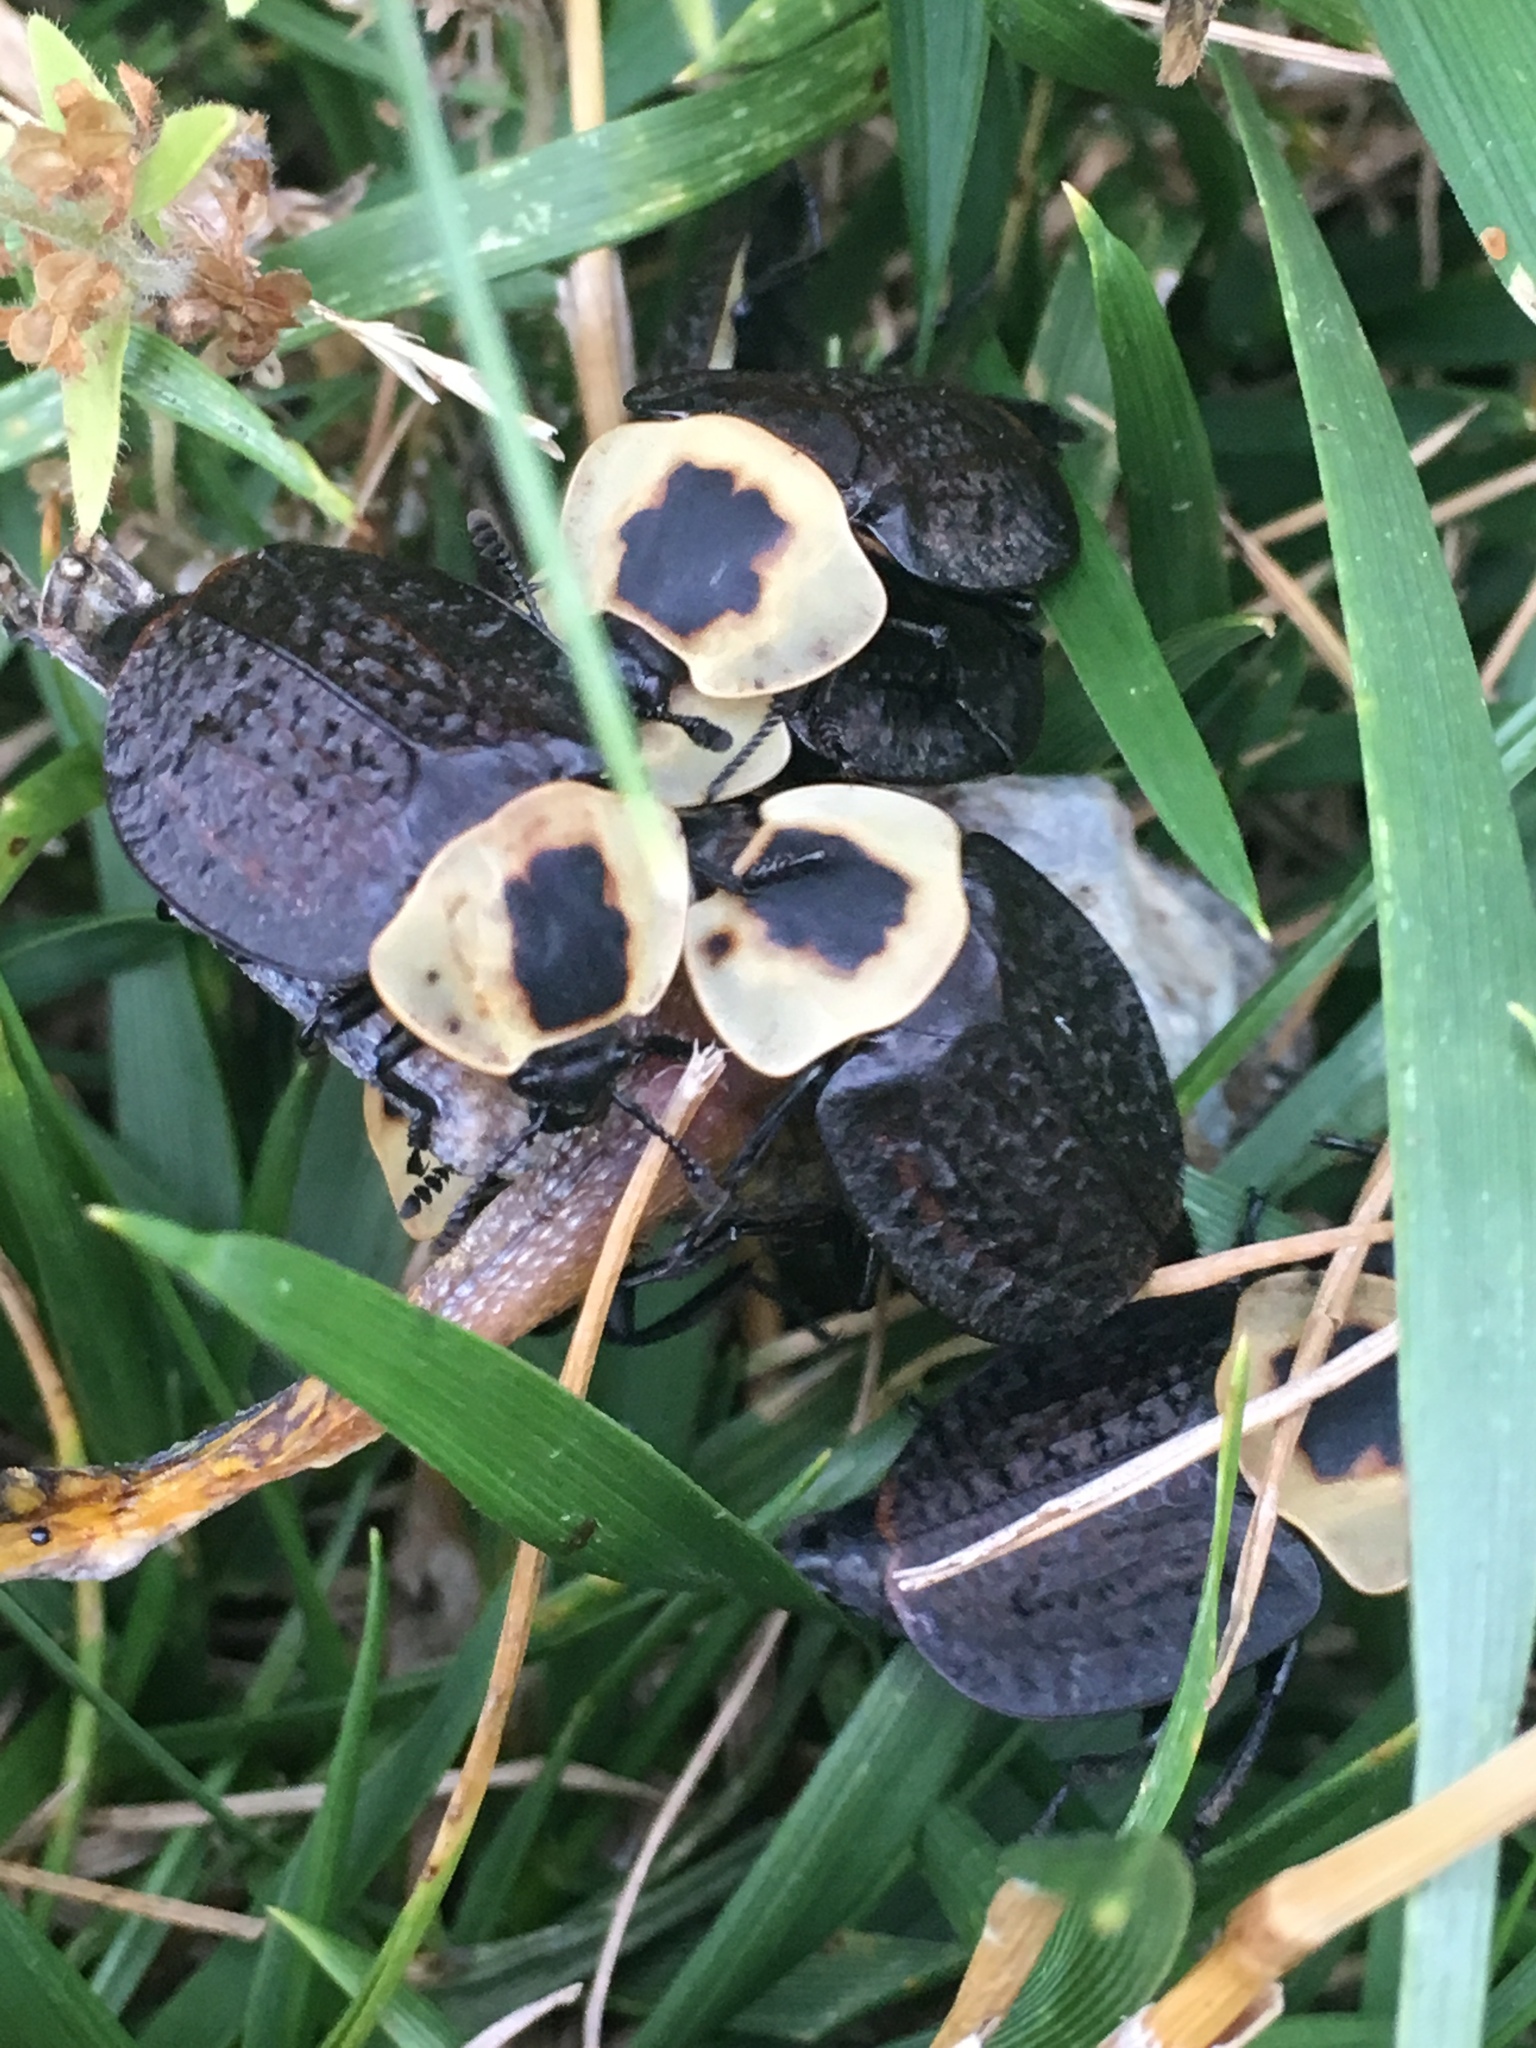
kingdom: Animalia
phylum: Arthropoda
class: Insecta
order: Coleoptera
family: Staphylinidae
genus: Necrophila
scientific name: Necrophila americana
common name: American carrion beetle
